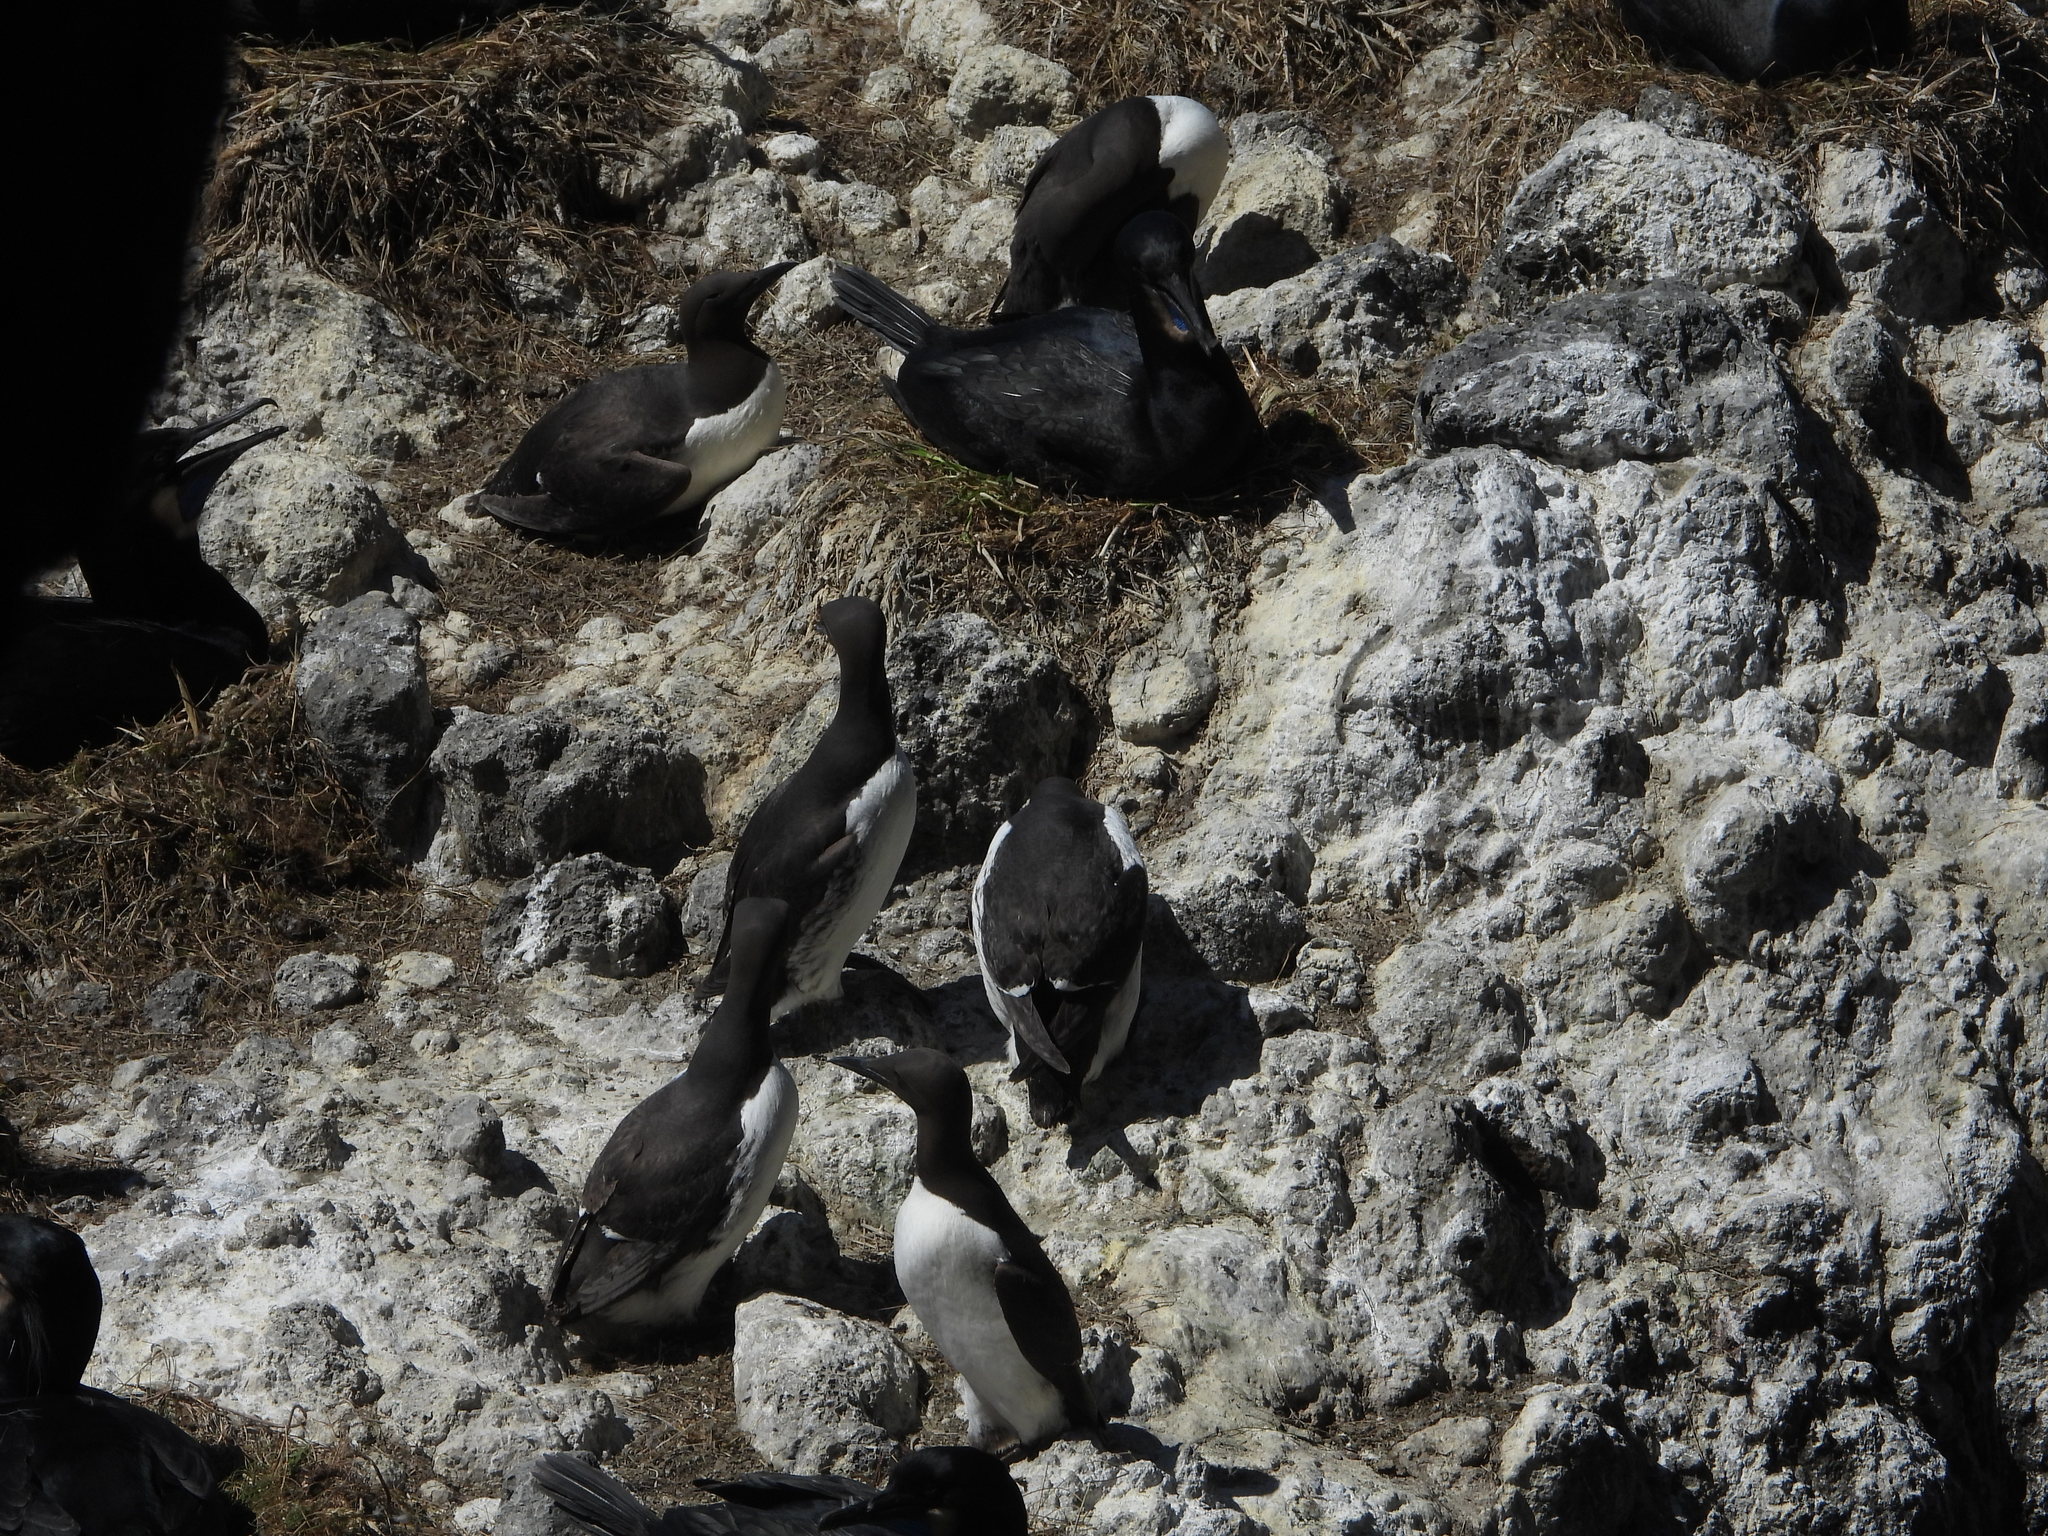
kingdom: Animalia
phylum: Chordata
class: Aves
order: Charadriiformes
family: Alcidae
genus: Uria
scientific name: Uria aalge
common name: Common murre
